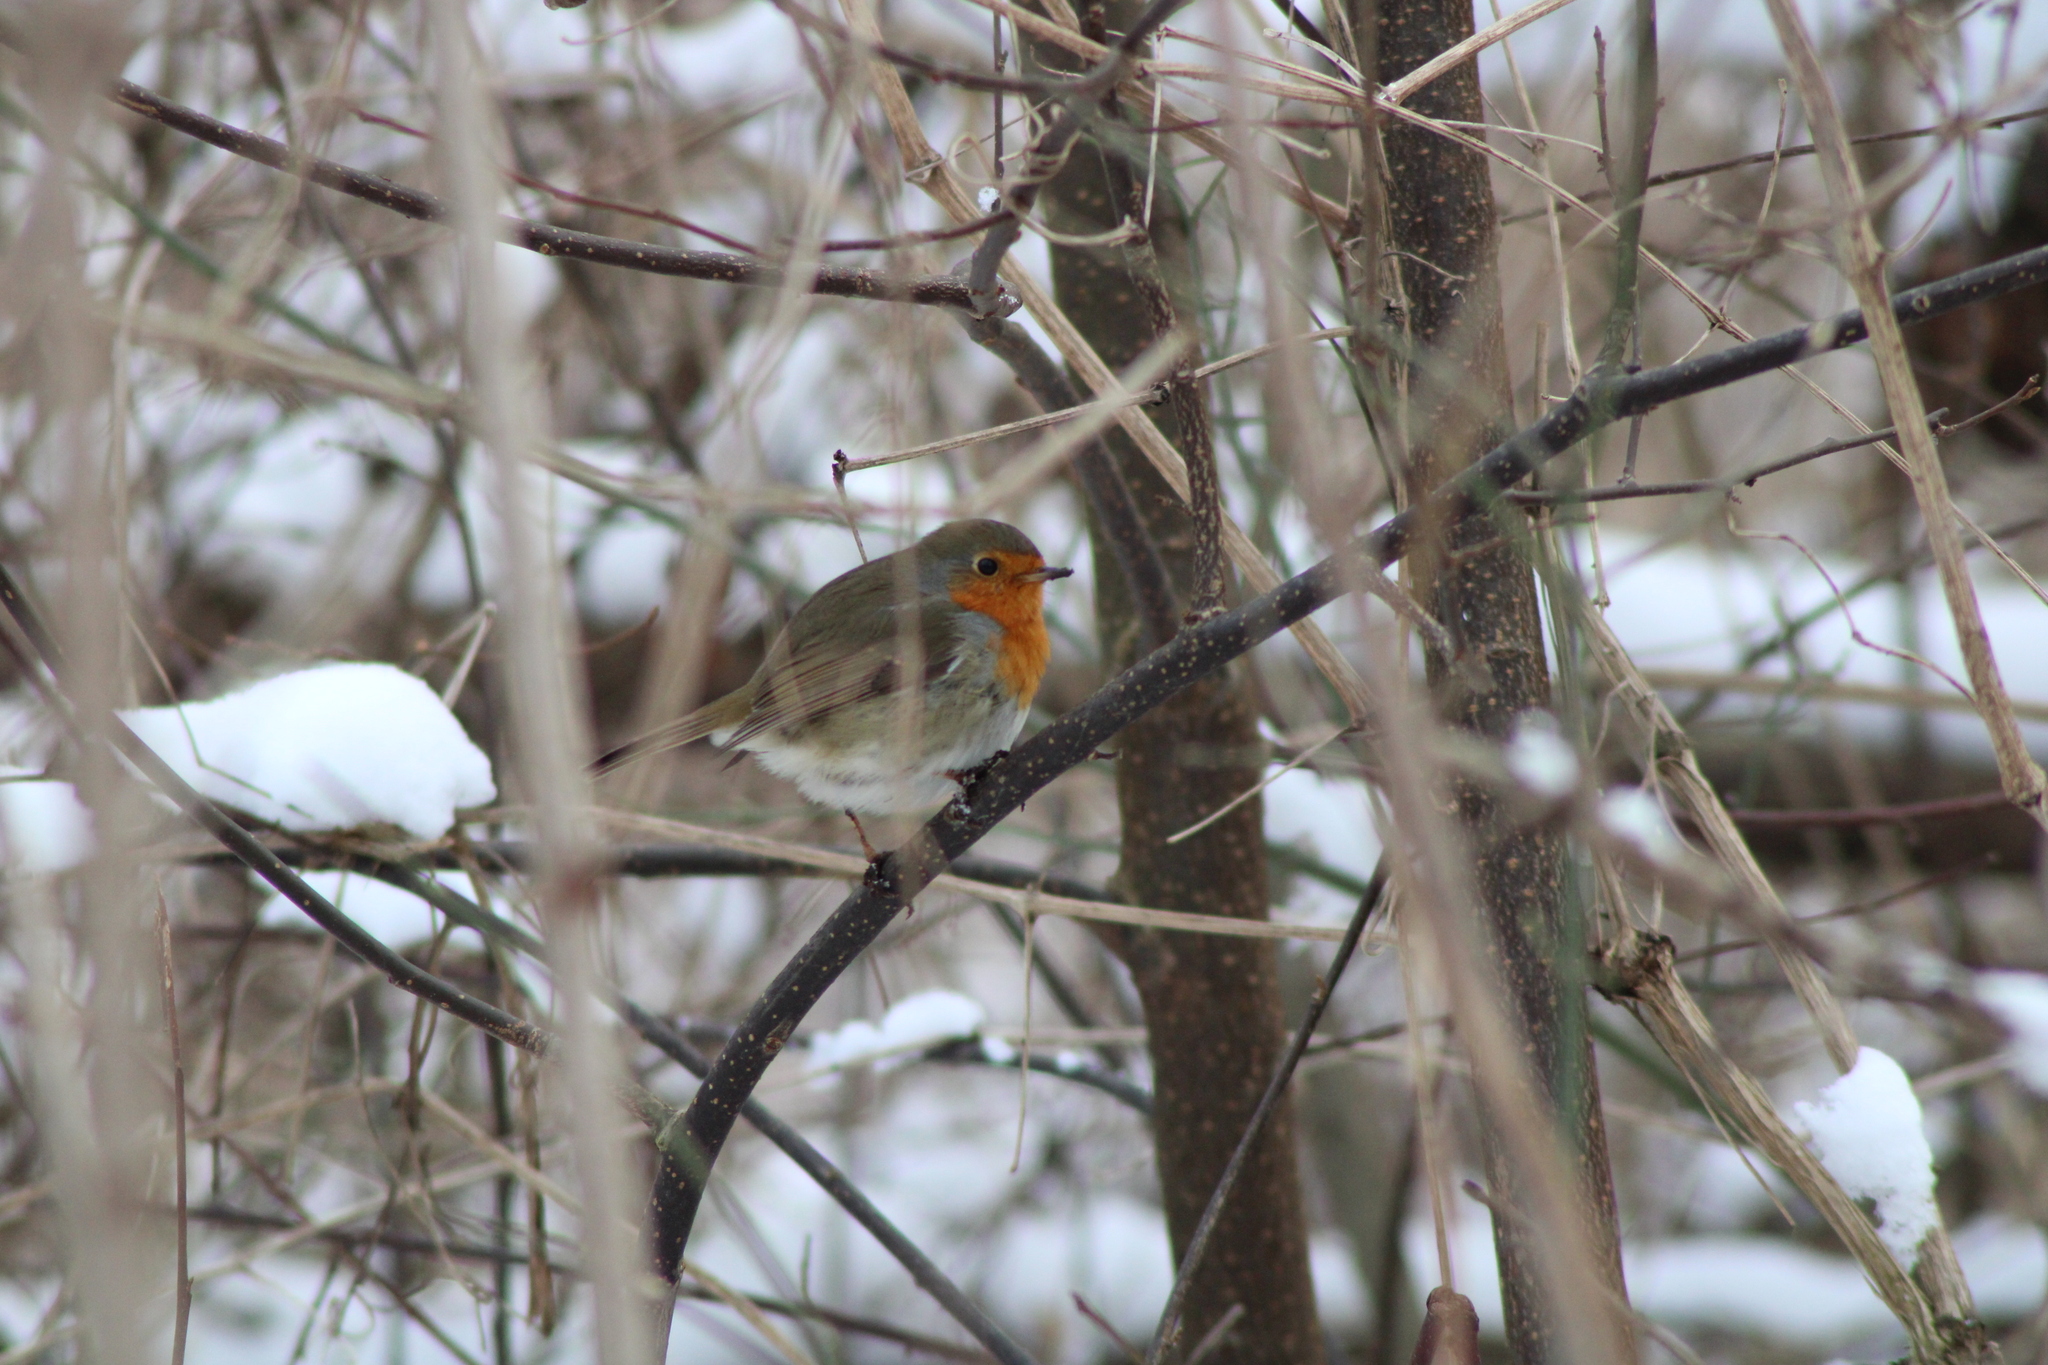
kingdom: Animalia
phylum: Chordata
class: Aves
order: Passeriformes
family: Muscicapidae
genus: Erithacus
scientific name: Erithacus rubecula
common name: European robin
